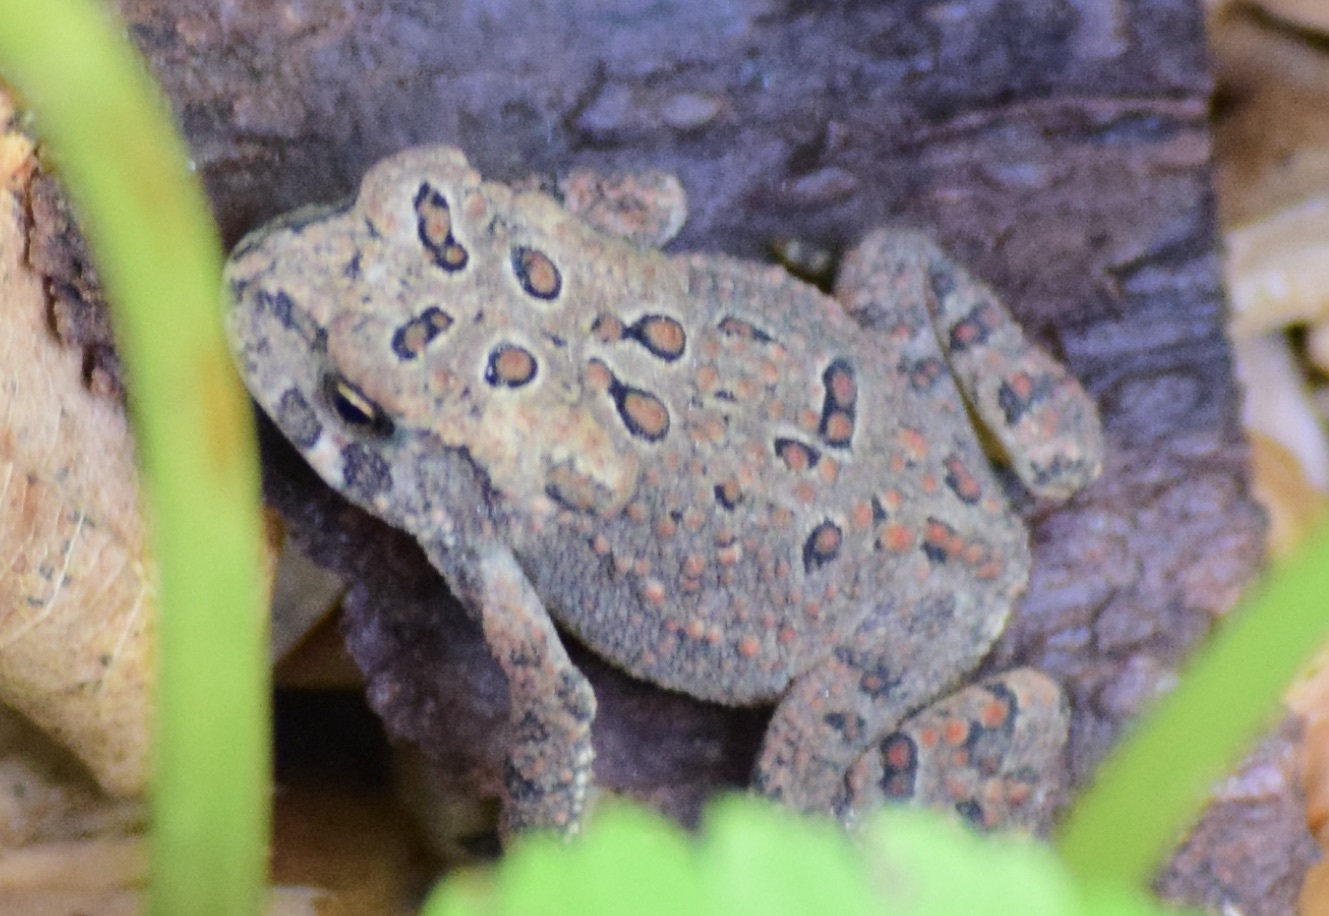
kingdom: Animalia
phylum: Chordata
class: Amphibia
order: Anura
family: Bufonidae
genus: Anaxyrus
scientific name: Anaxyrus americanus
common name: American toad
